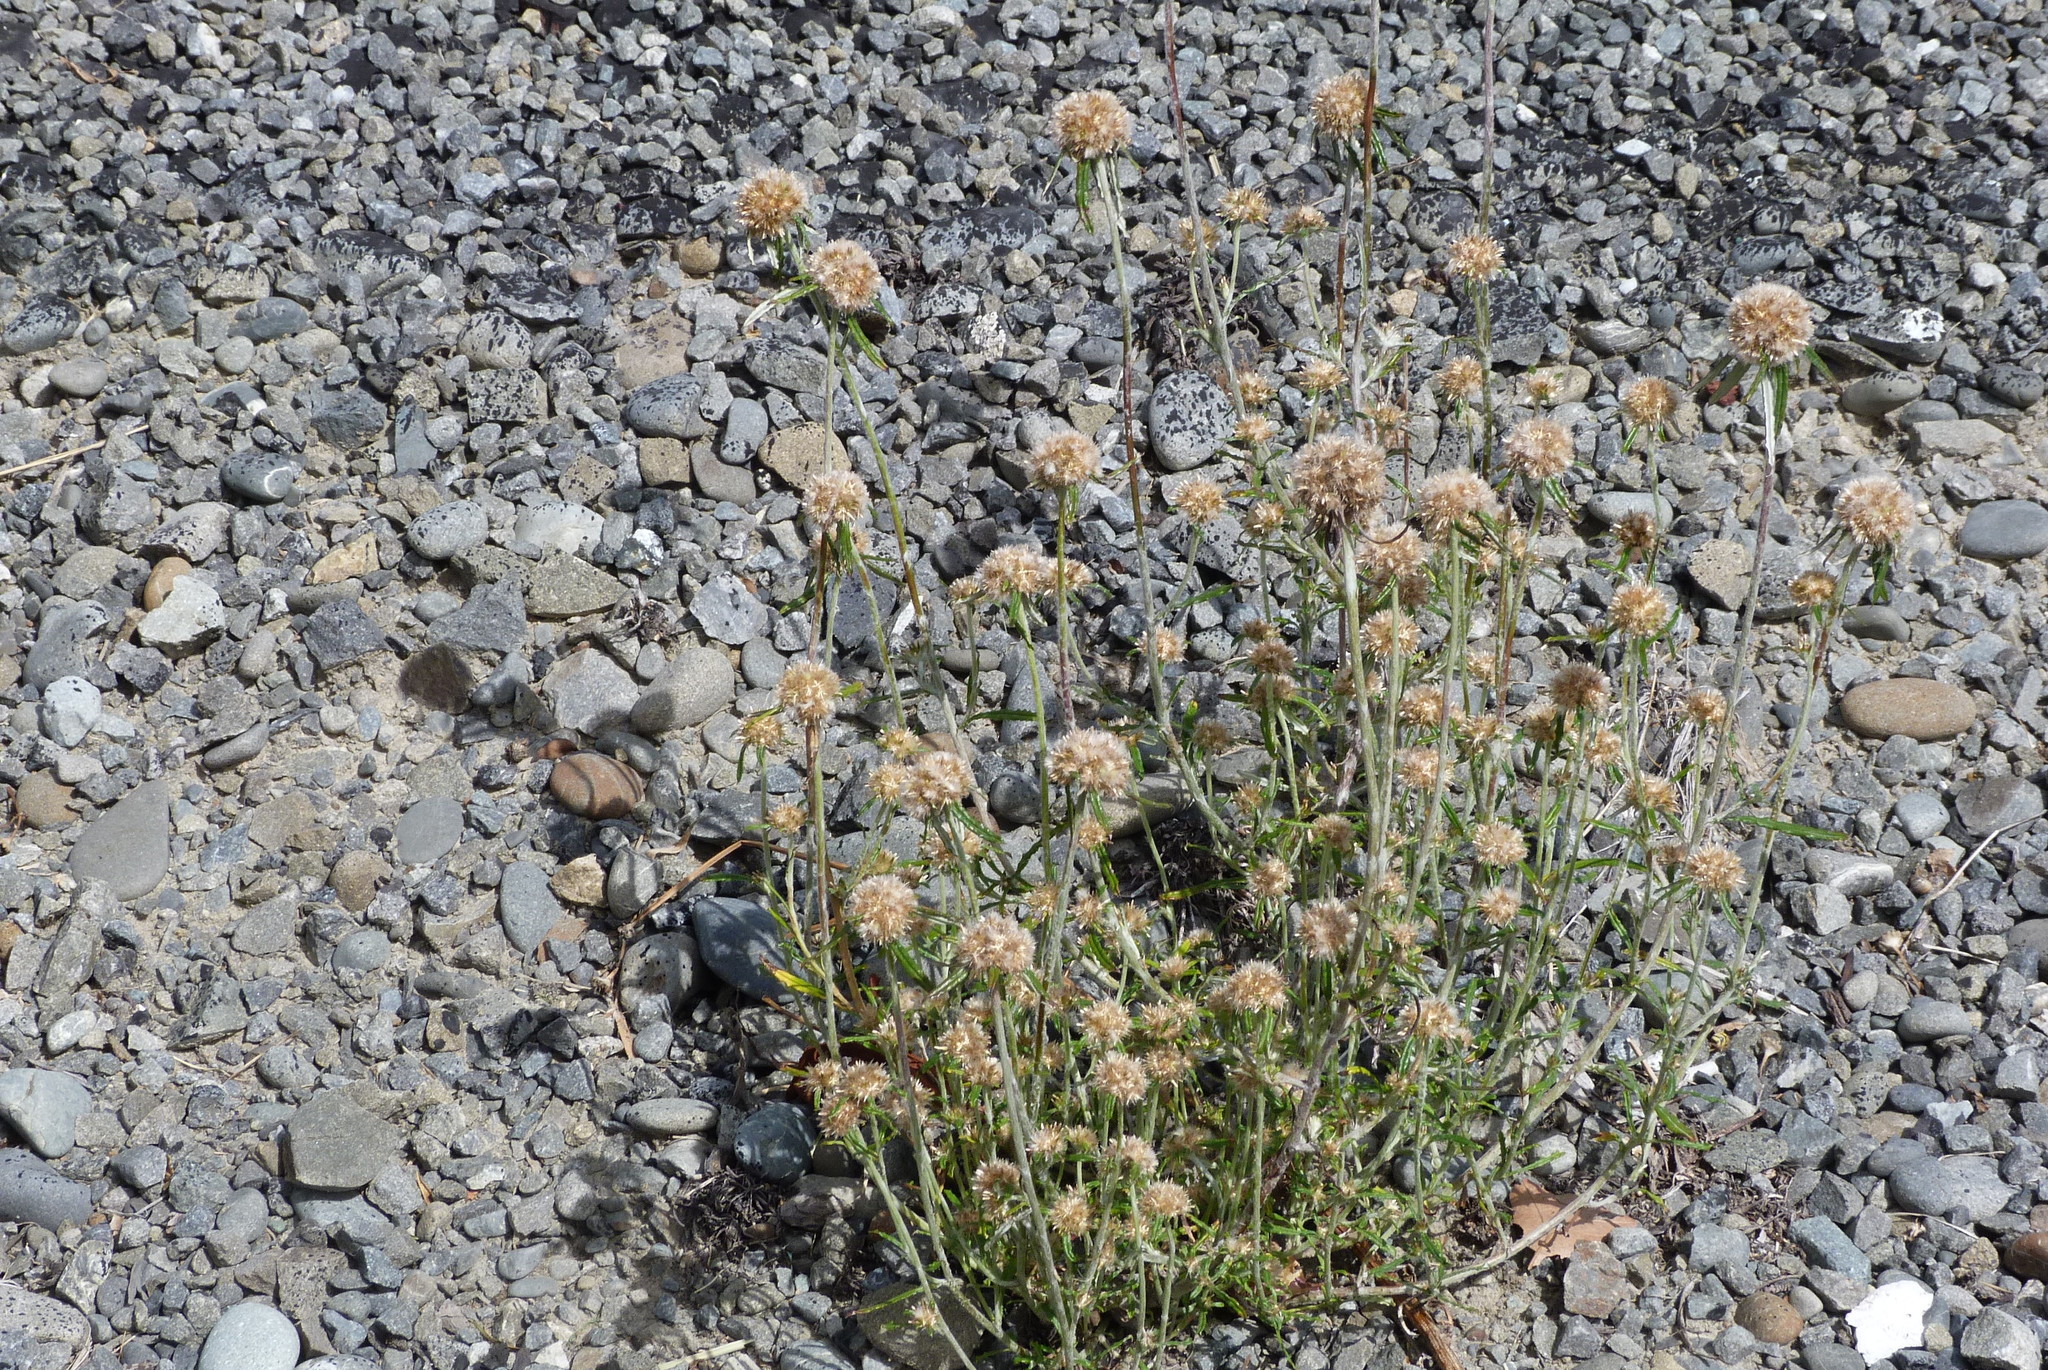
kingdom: Plantae
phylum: Tracheophyta
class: Magnoliopsida
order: Asterales
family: Asteraceae
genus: Euchiton
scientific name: Euchiton sphaericus
